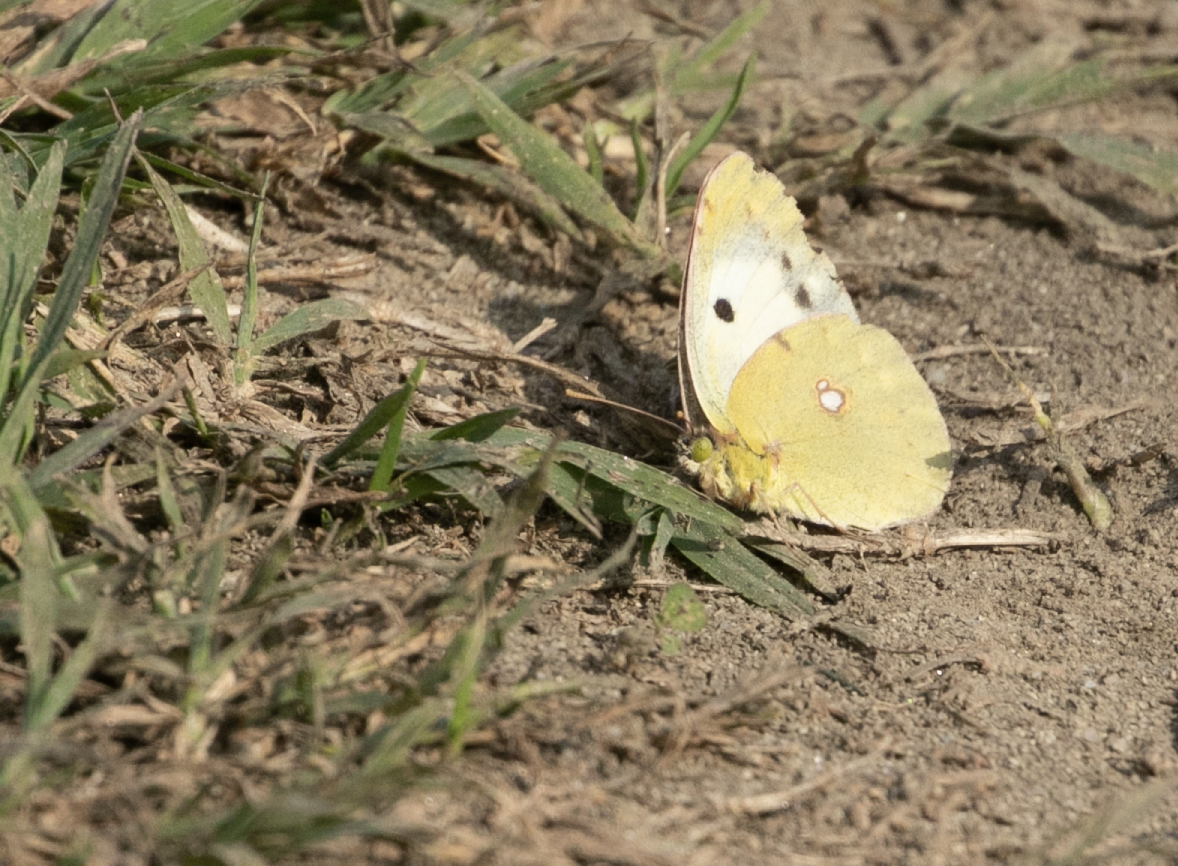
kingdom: Animalia
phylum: Arthropoda
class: Insecta
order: Lepidoptera
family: Pieridae
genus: Colias
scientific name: Colias croceus
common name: Clouded yellow
